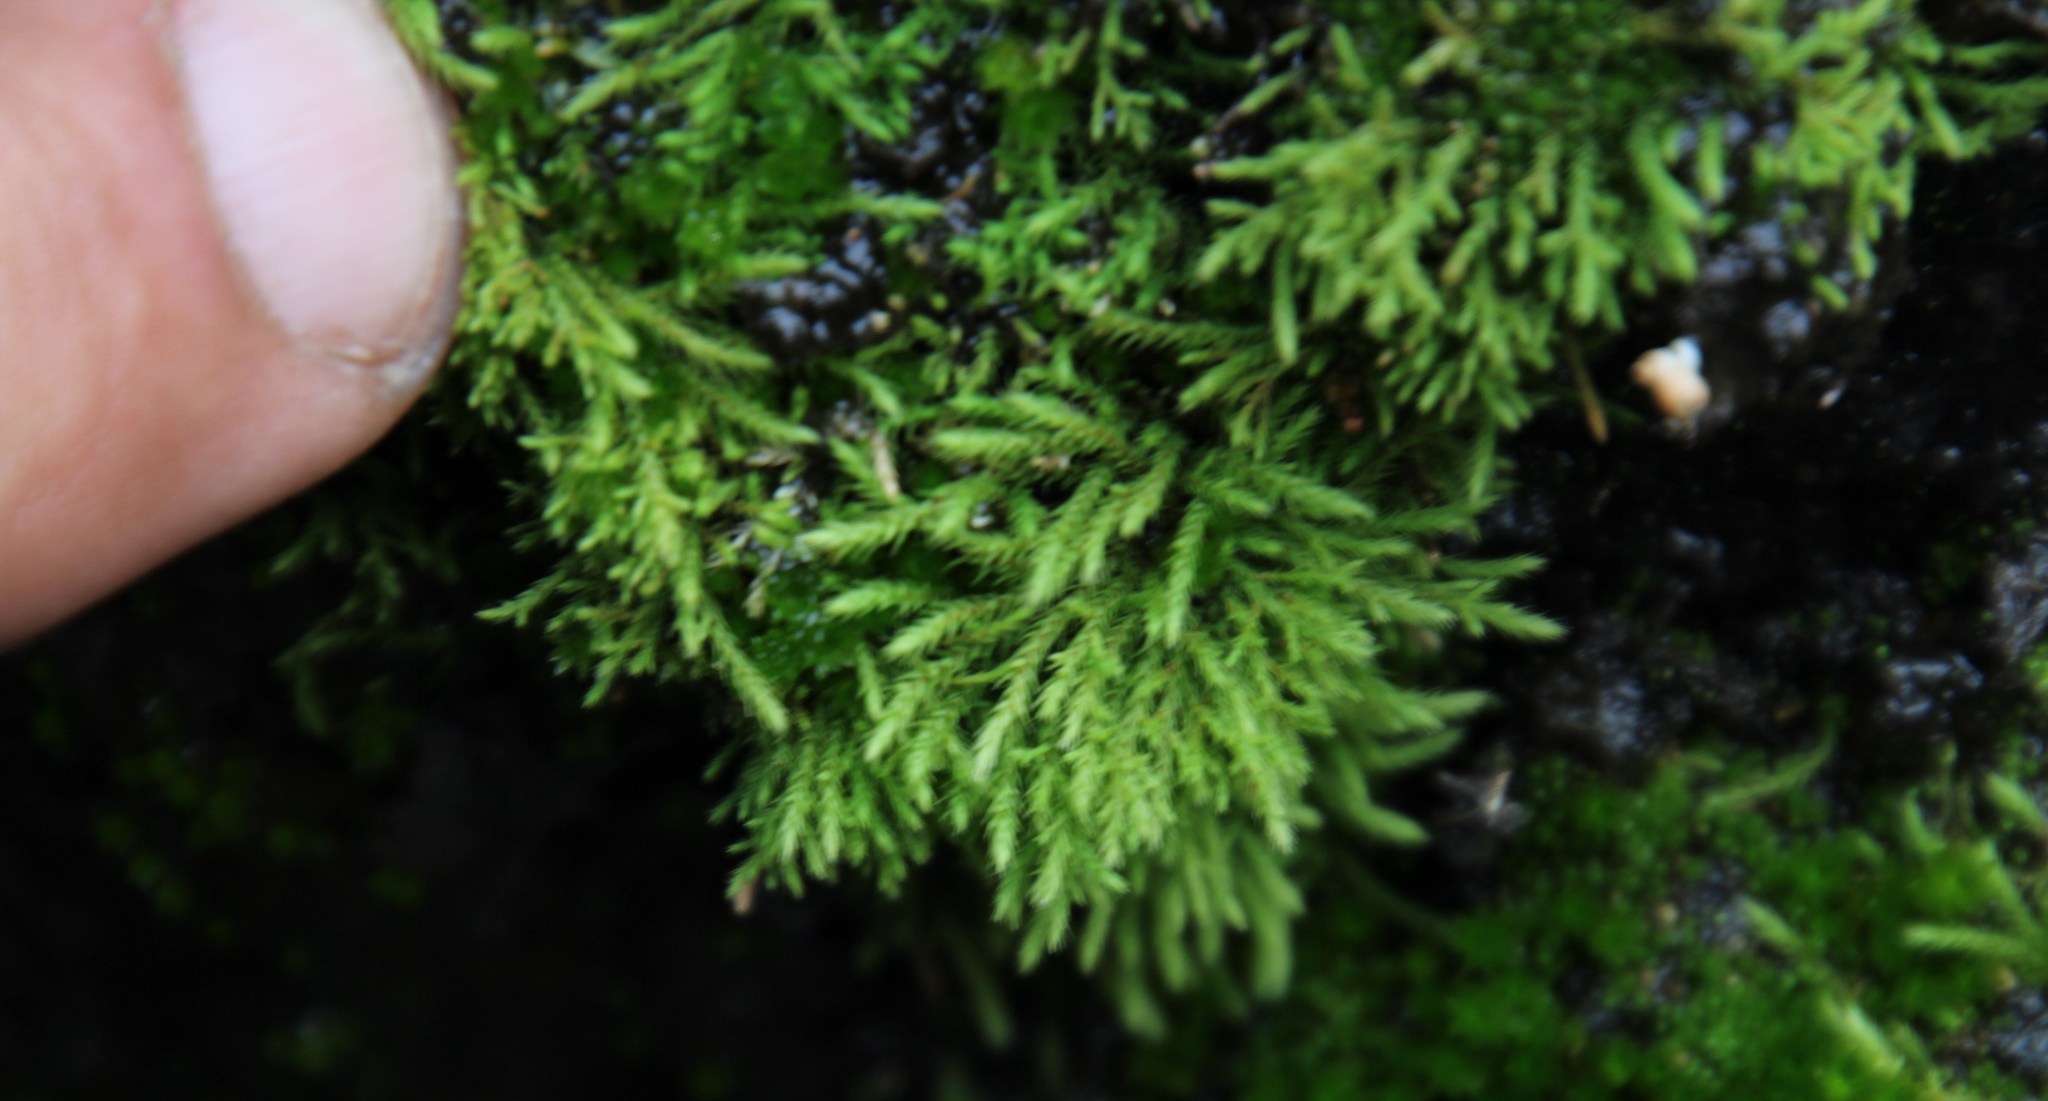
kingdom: Plantae
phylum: Bryophyta
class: Bryopsida
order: Bartramiales
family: Bartramiaceae
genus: Philonotis
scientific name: Philonotis dregeana
